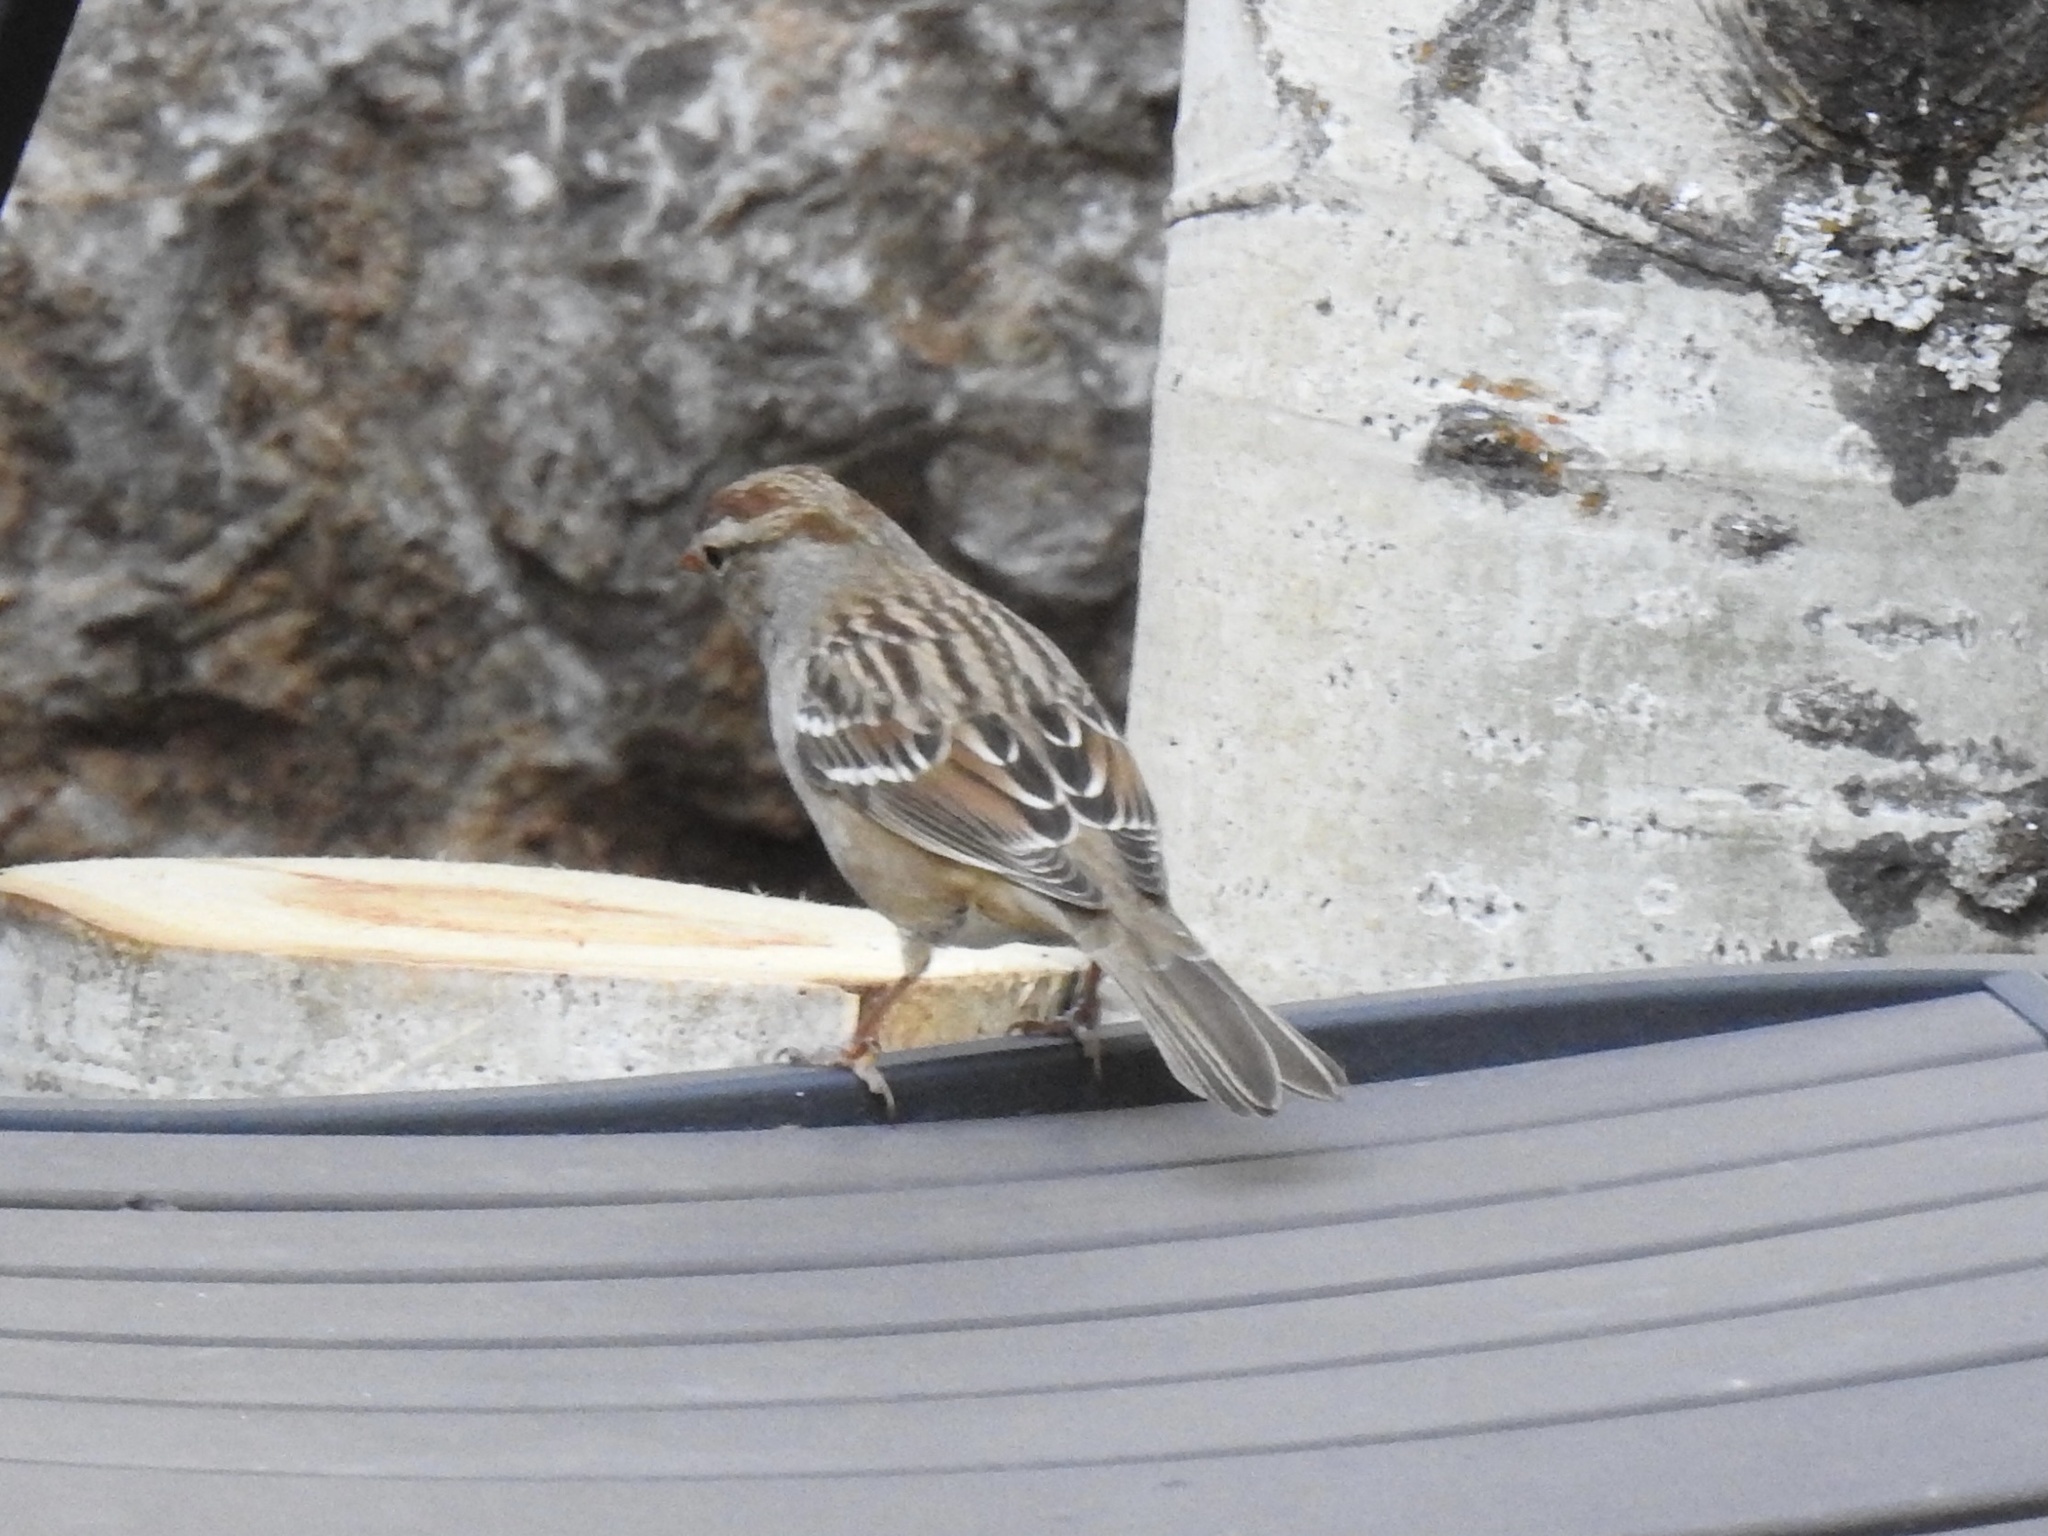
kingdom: Animalia
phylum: Chordata
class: Aves
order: Passeriformes
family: Passerellidae
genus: Zonotrichia
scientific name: Zonotrichia leucophrys
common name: White-crowned sparrow
